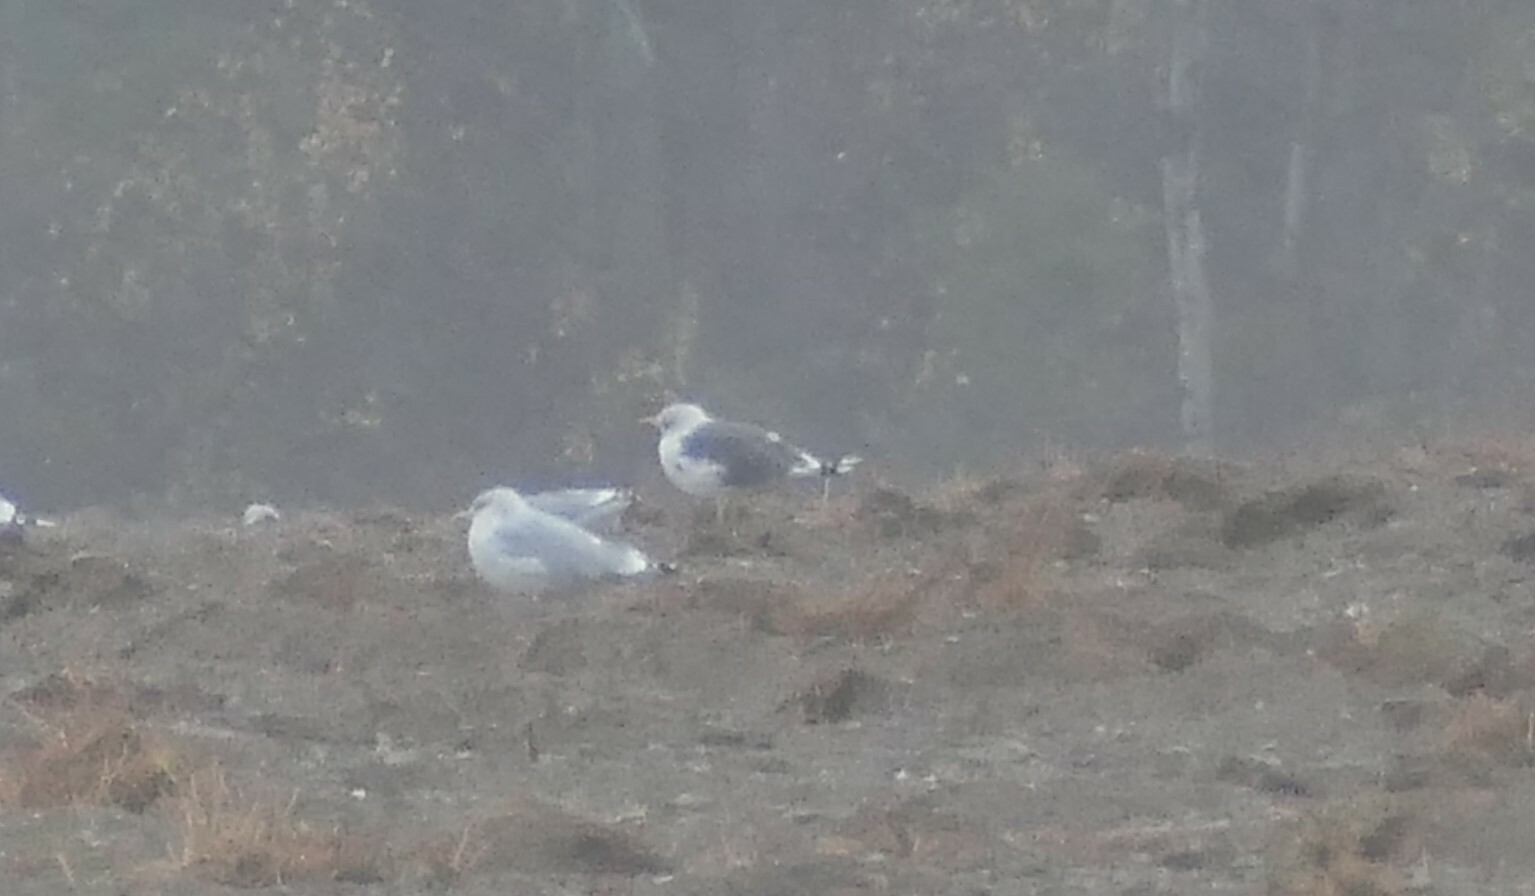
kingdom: Animalia
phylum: Chordata
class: Aves
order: Charadriiformes
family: Laridae
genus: Larus
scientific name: Larus fuscus
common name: Lesser black-backed gull
